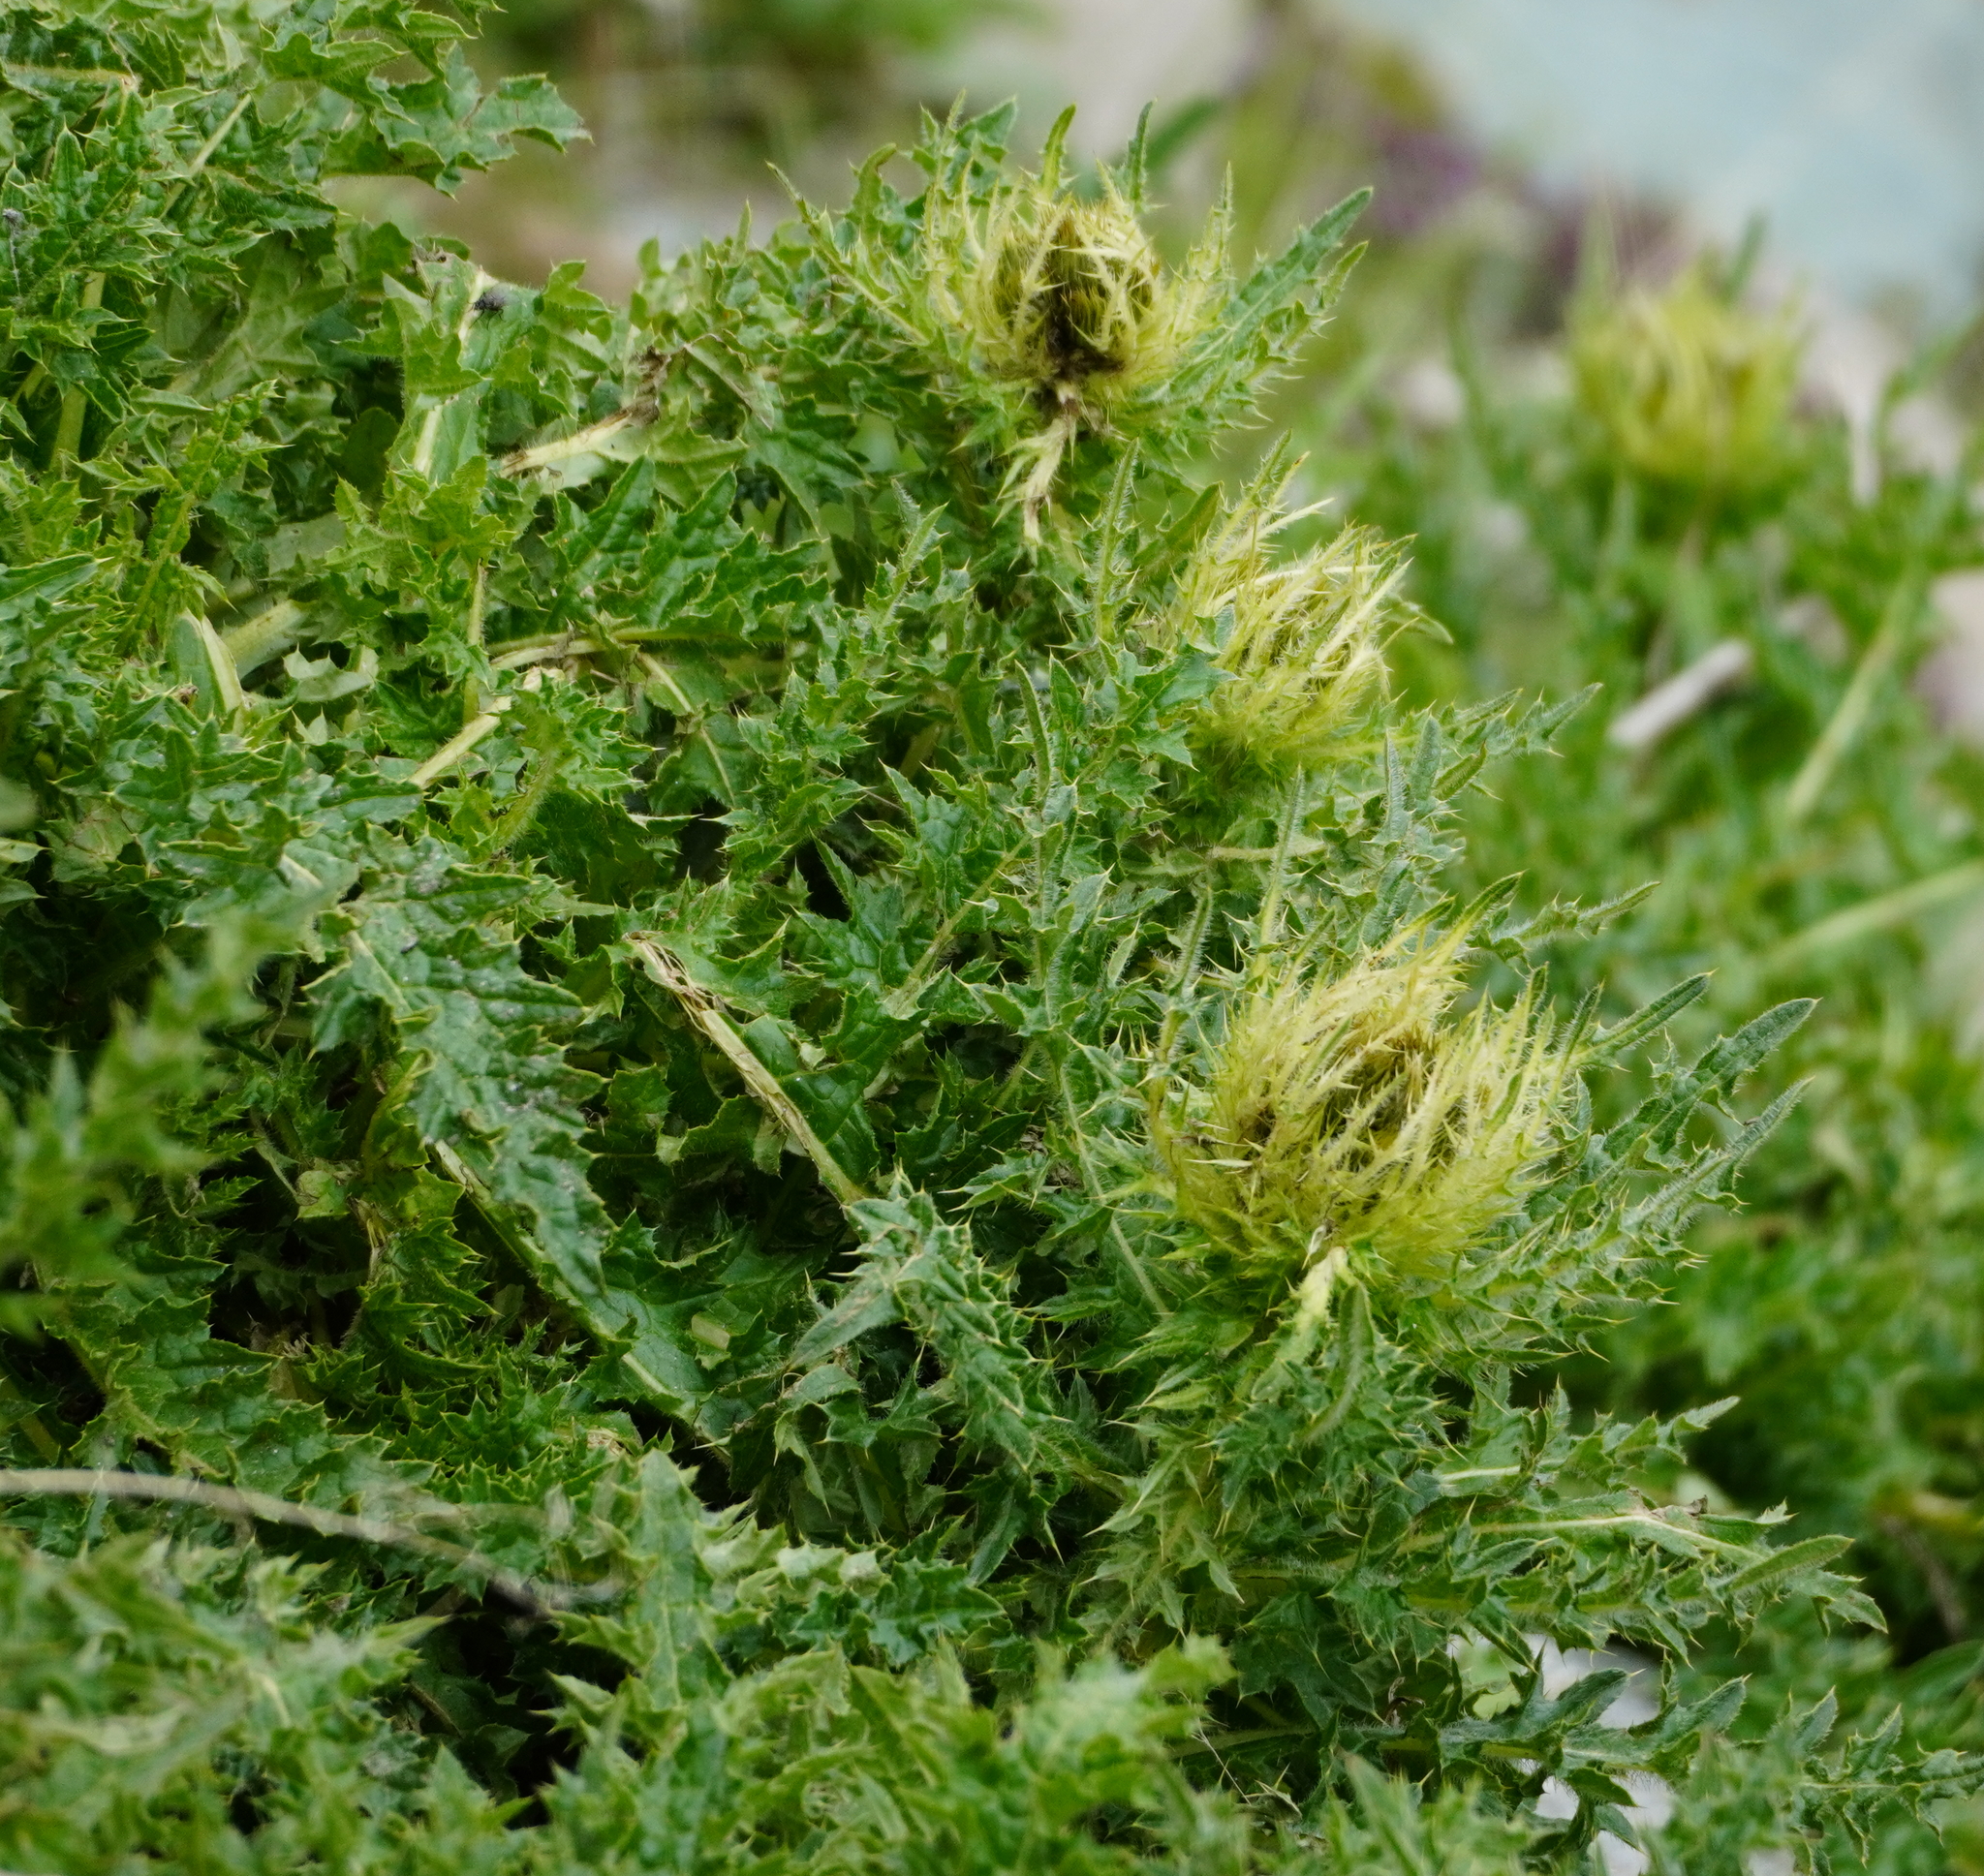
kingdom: Plantae
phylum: Tracheophyta
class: Magnoliopsida
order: Asterales
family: Asteraceae
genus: Cirsium
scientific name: Cirsium spinosissimum
